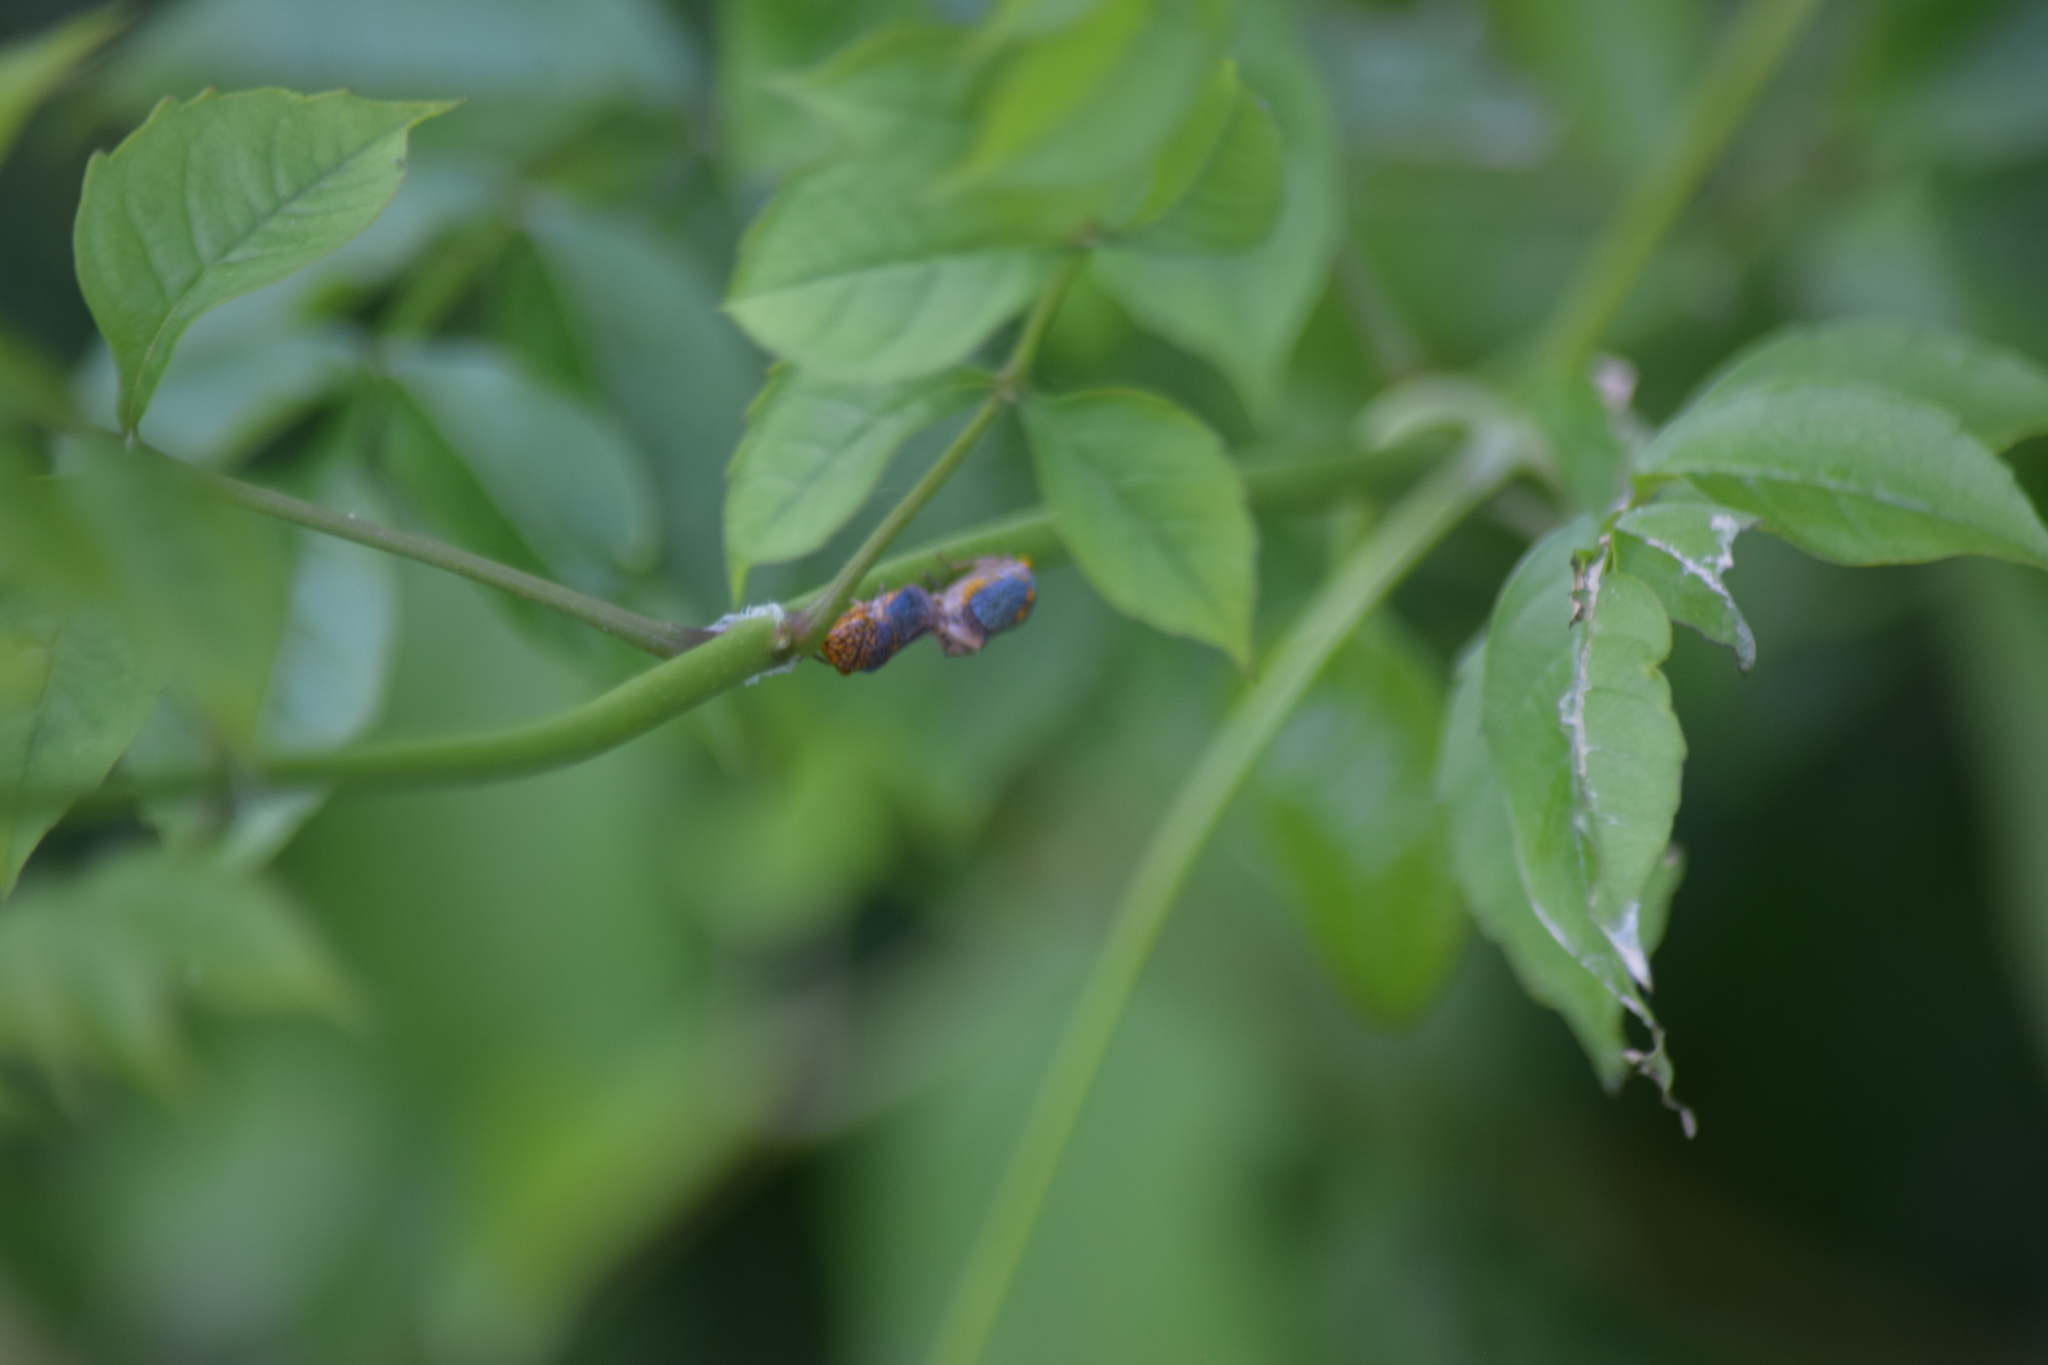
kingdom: Animalia
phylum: Arthropoda
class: Insecta
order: Hemiptera
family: Cicadellidae
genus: Oncometopia
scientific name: Oncometopia orbona
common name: Broad-headed sharpshooter
